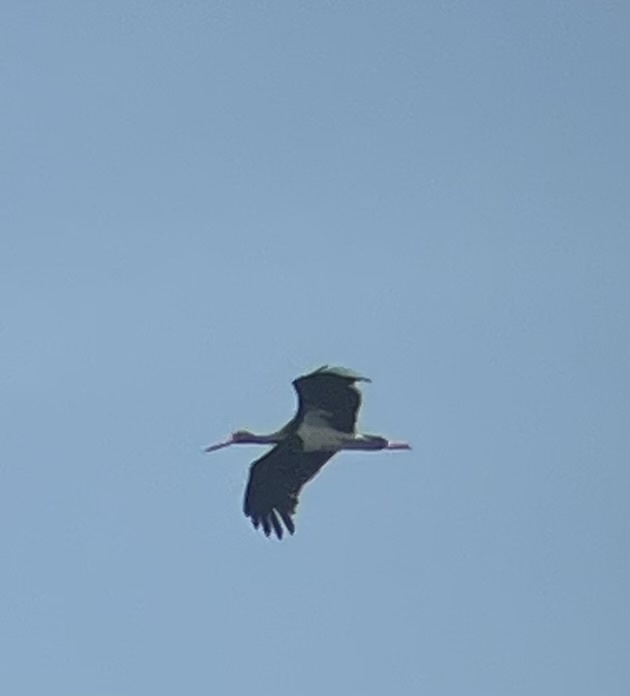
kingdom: Animalia
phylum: Chordata
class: Aves
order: Ciconiiformes
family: Ciconiidae
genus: Ciconia
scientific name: Ciconia nigra
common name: Black stork
